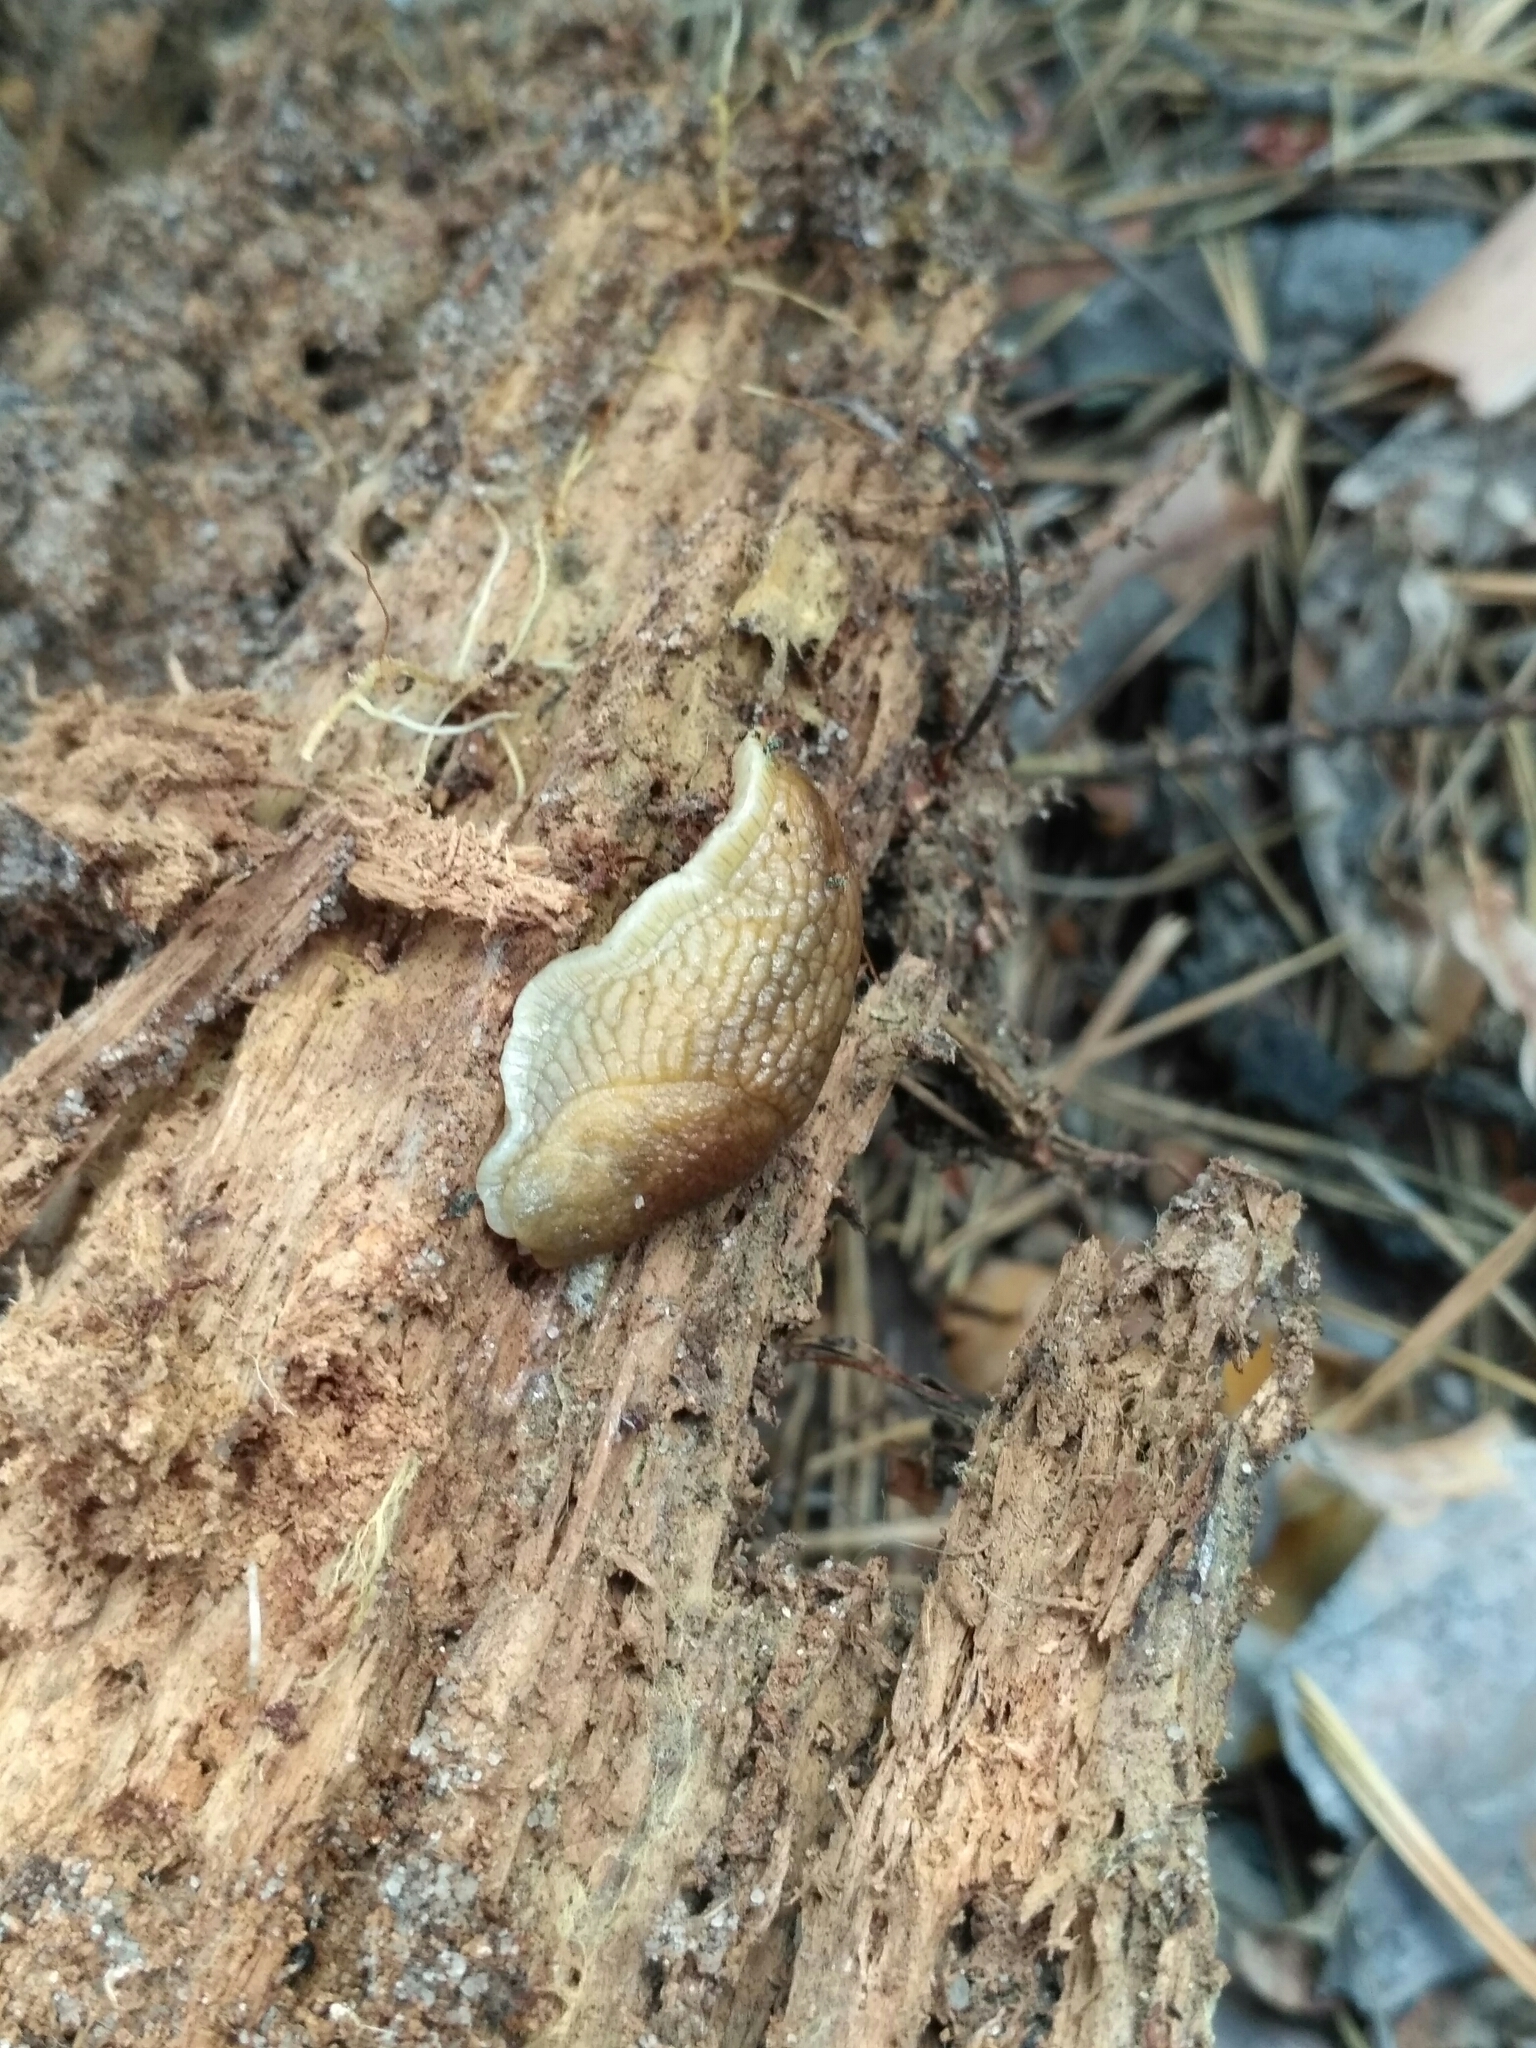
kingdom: Animalia
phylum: Mollusca
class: Gastropoda
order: Stylommatophora
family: Arionidae
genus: Arion
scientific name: Arion fuscus
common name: Northern dusky slug
